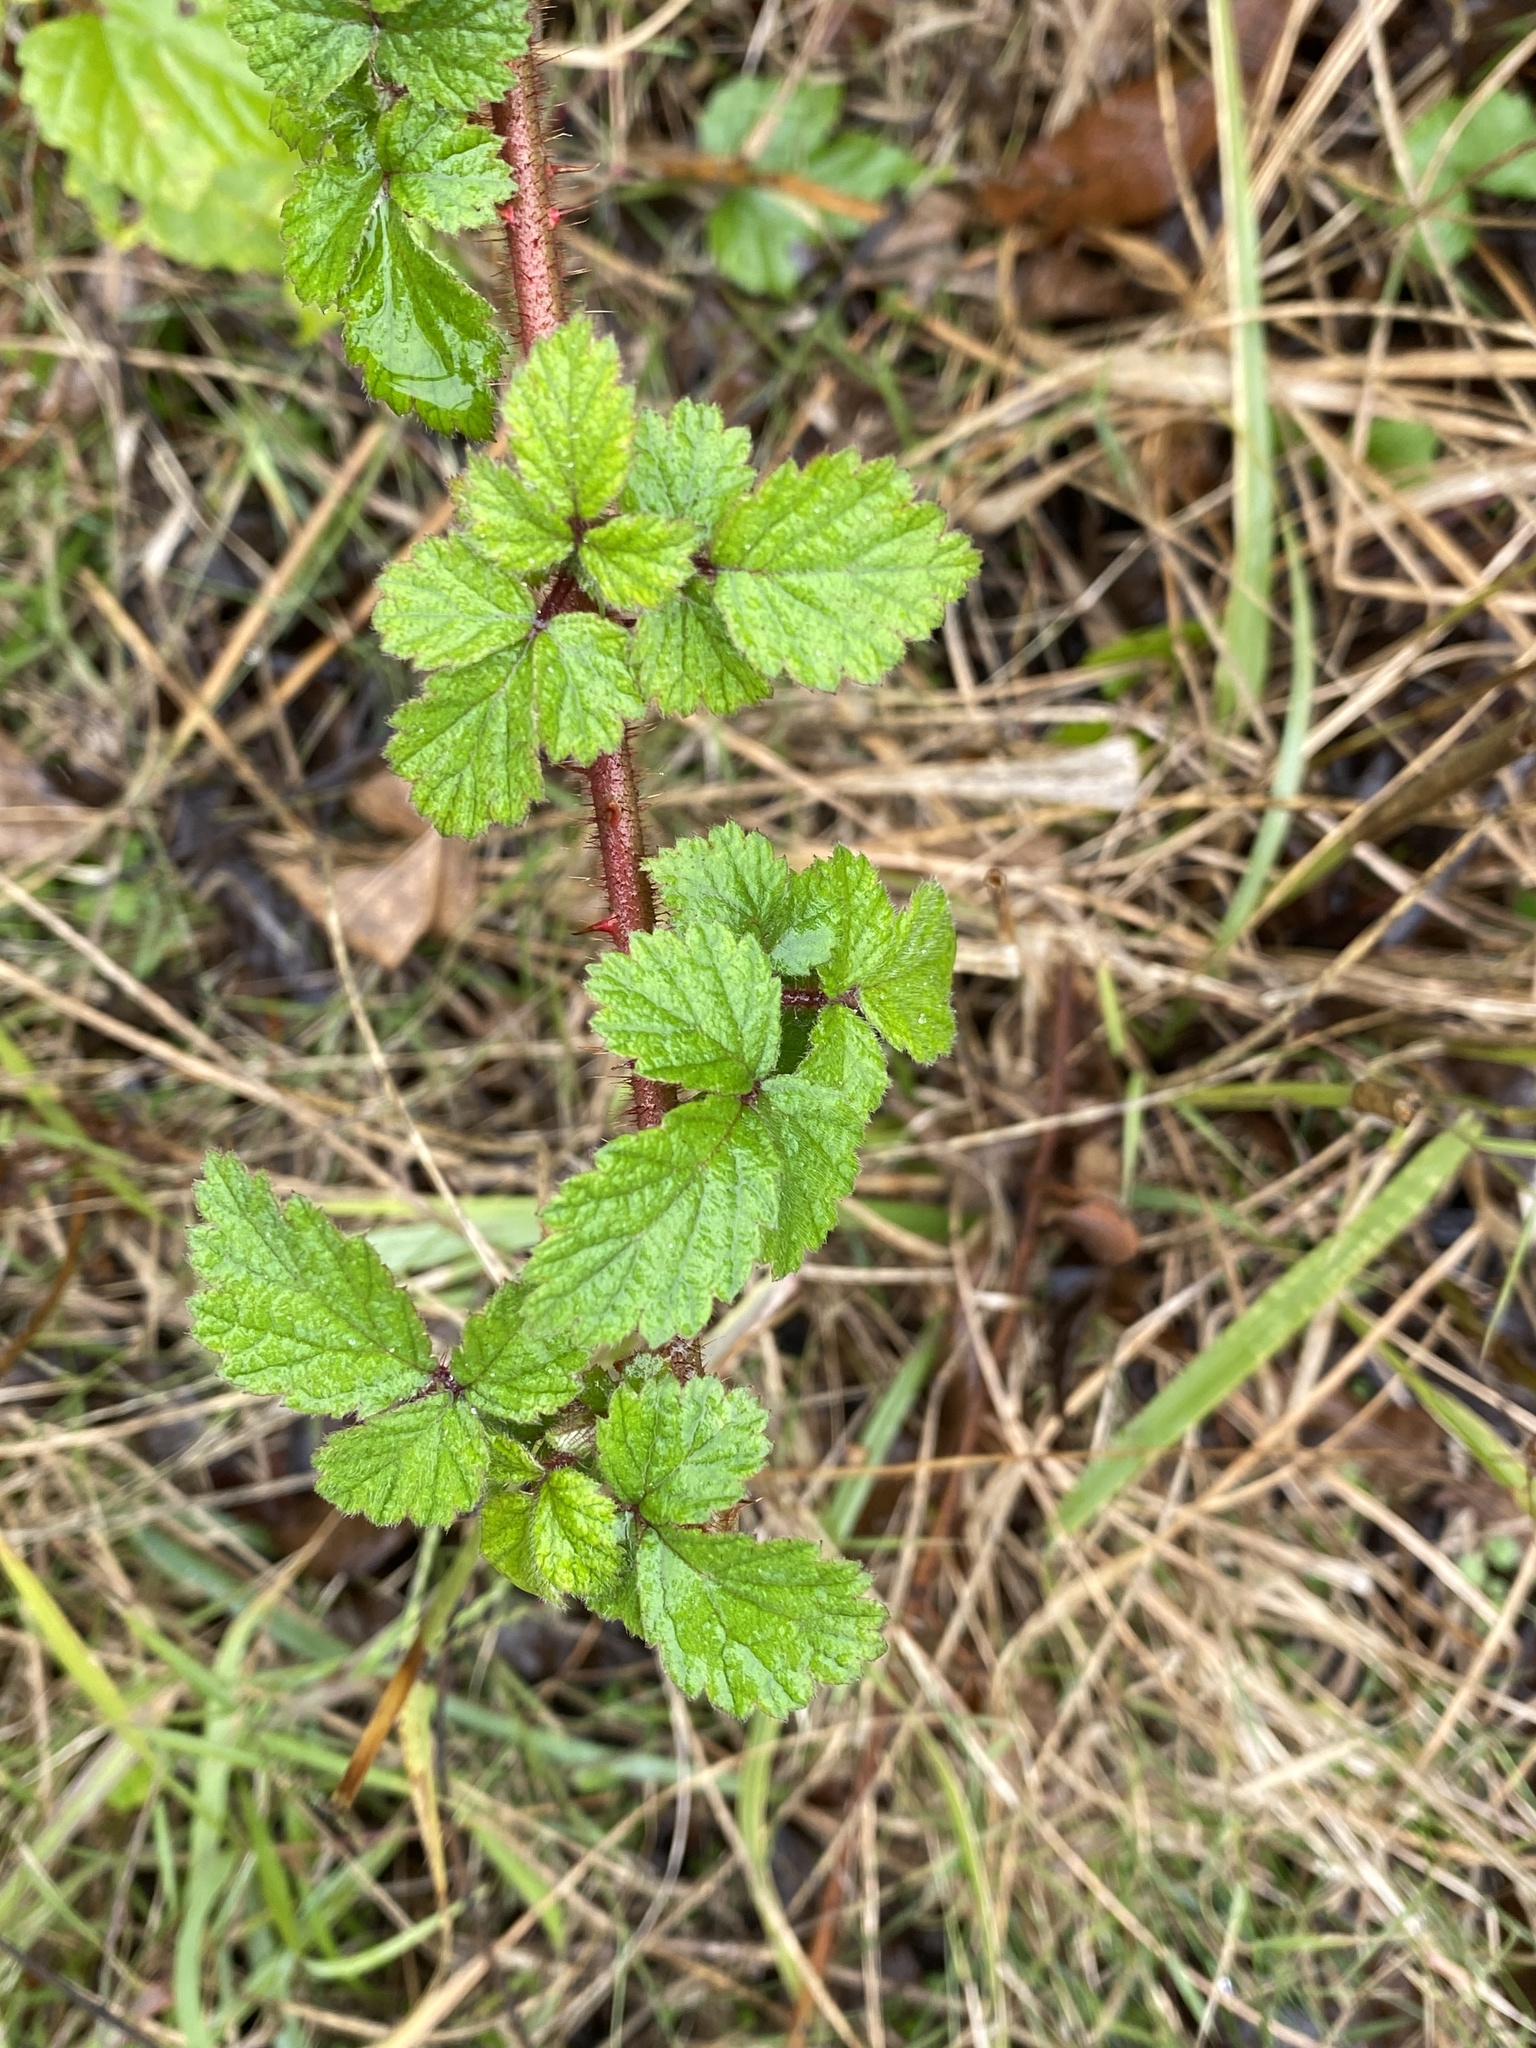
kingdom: Plantae
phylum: Tracheophyta
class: Magnoliopsida
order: Rosales
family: Rosaceae
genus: Rubus
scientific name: Rubus phoenicolasius
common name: Japanese wineberry
